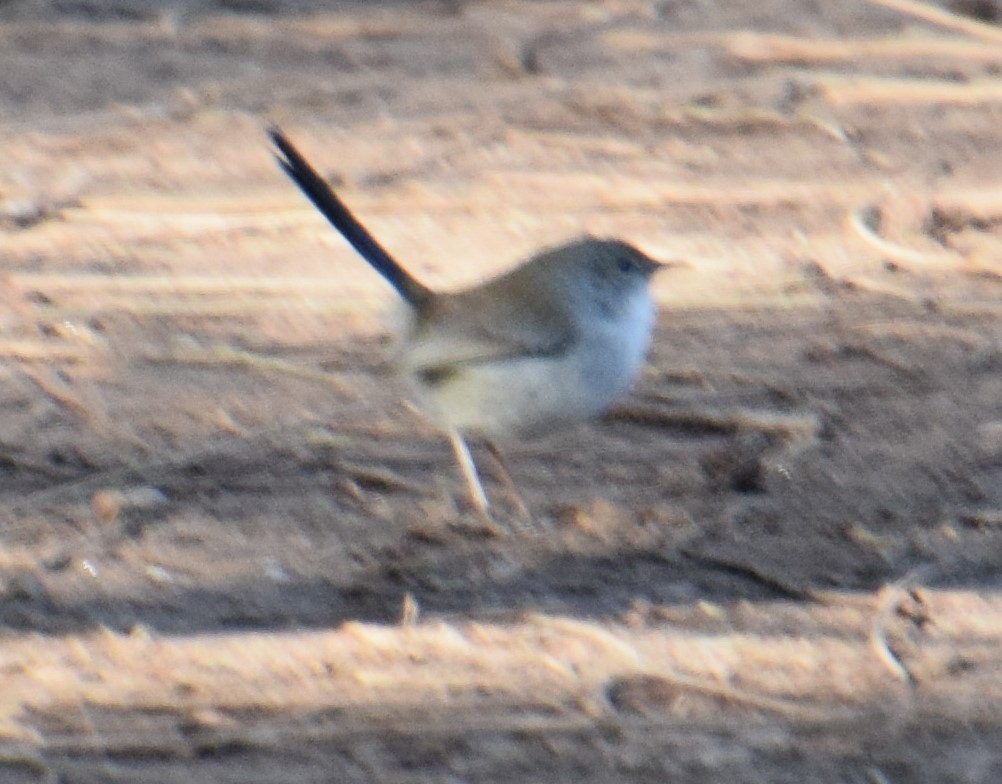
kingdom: Animalia
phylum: Chordata
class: Aves
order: Passeriformes
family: Maluridae
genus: Malurus
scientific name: Malurus cyaneus
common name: Superb fairywren
